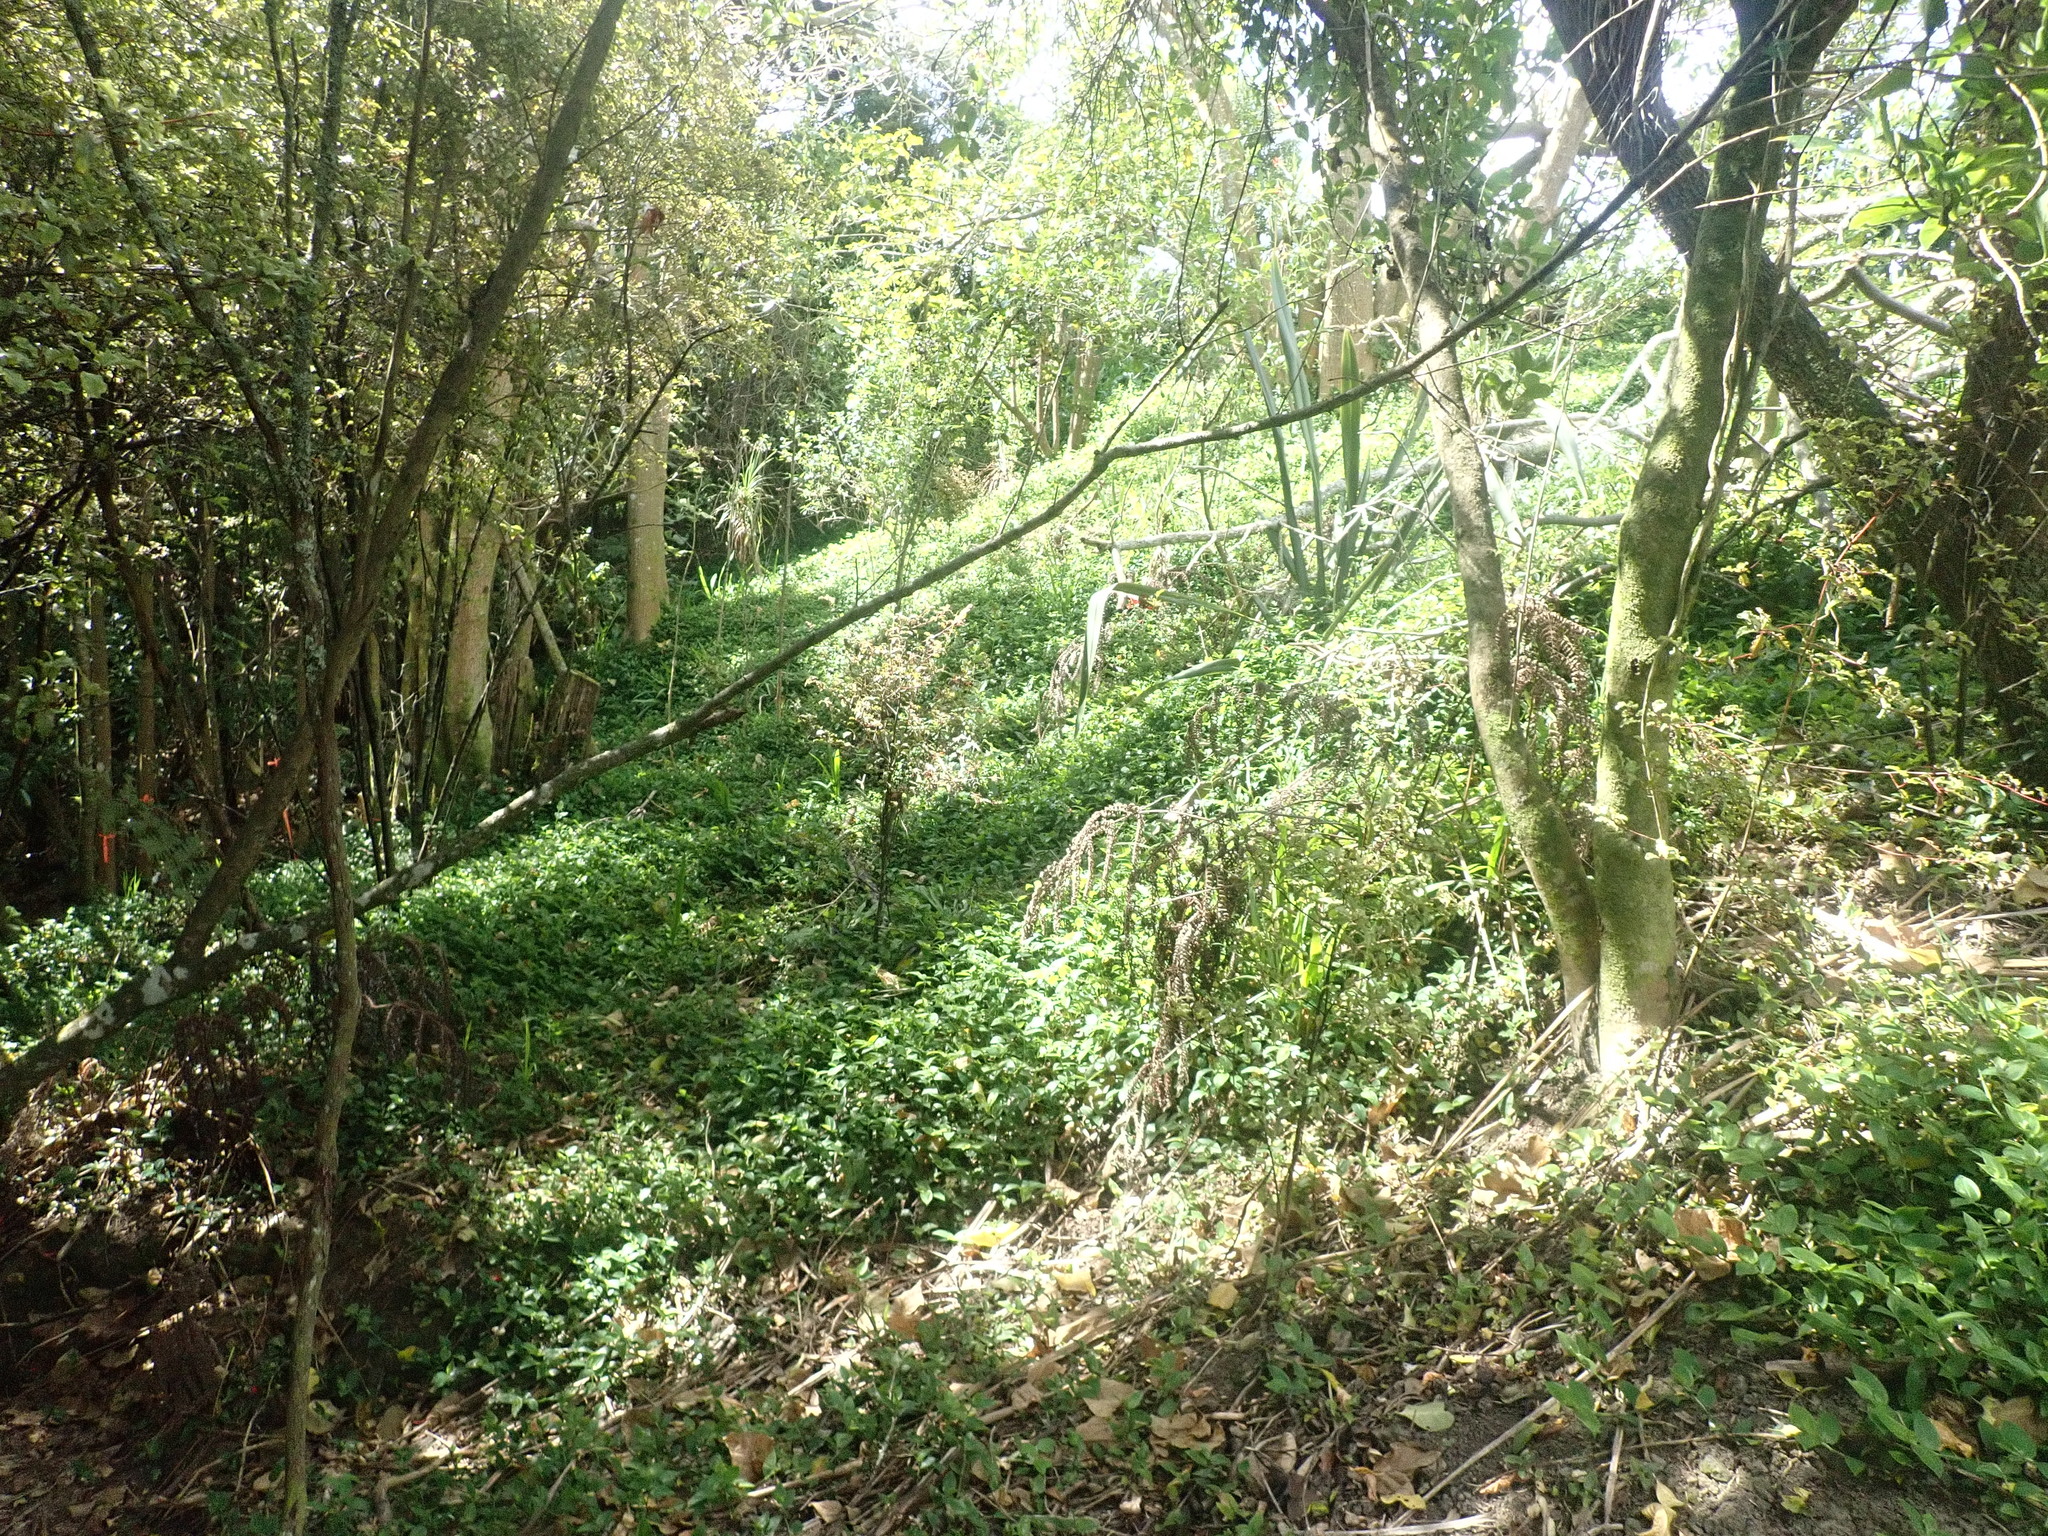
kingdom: Plantae
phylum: Tracheophyta
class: Magnoliopsida
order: Ericales
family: Primulaceae
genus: Myrsine
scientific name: Myrsine australis
